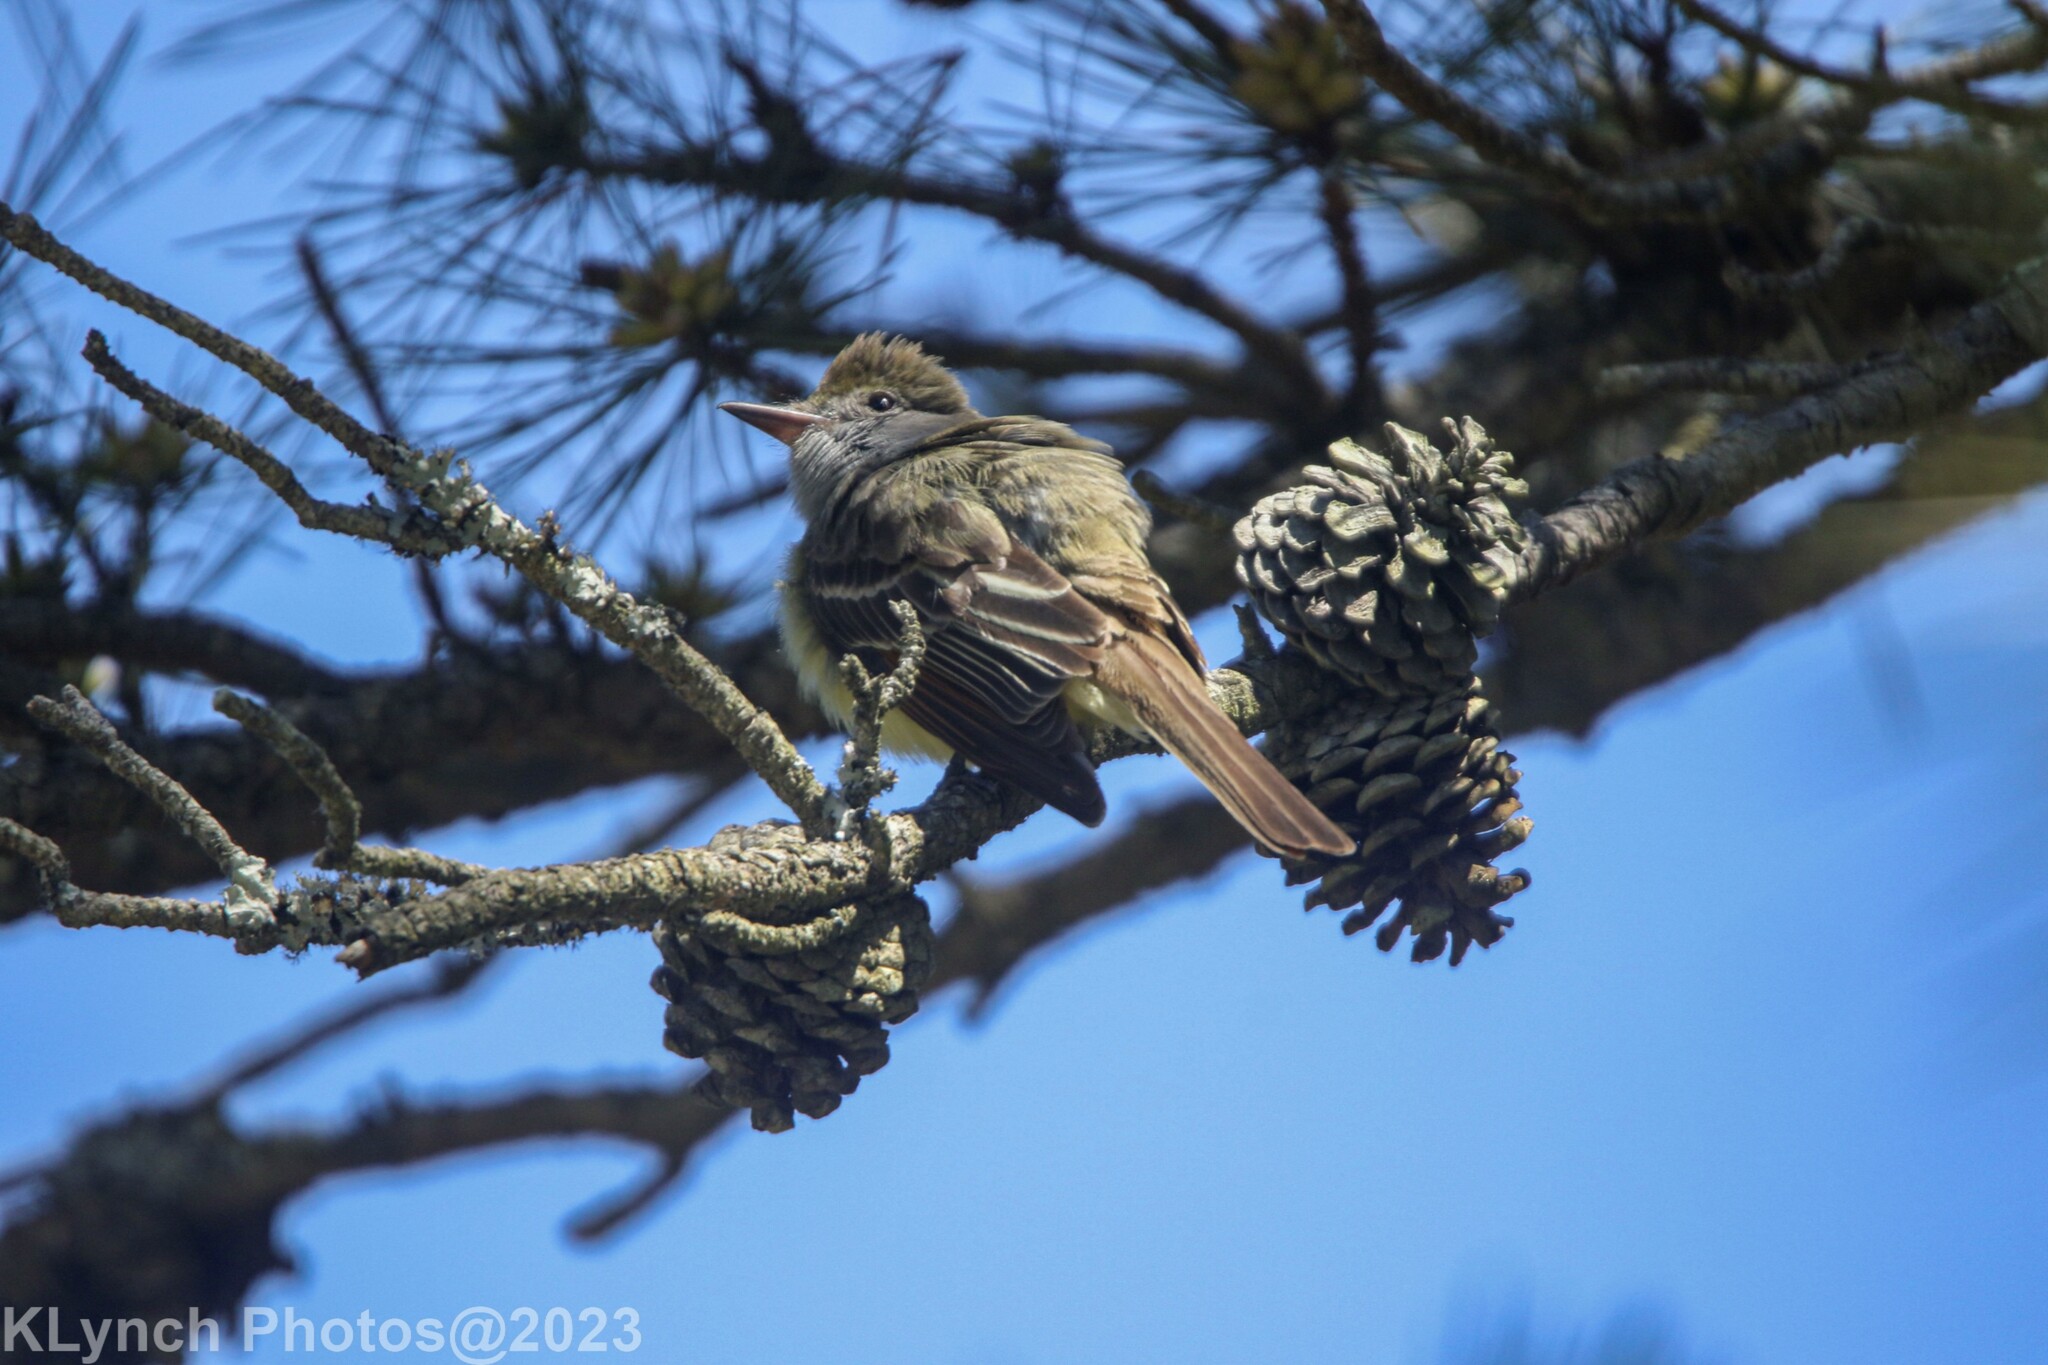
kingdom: Animalia
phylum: Chordata
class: Aves
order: Passeriformes
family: Tyrannidae
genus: Myiarchus
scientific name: Myiarchus crinitus
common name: Great crested flycatcher
